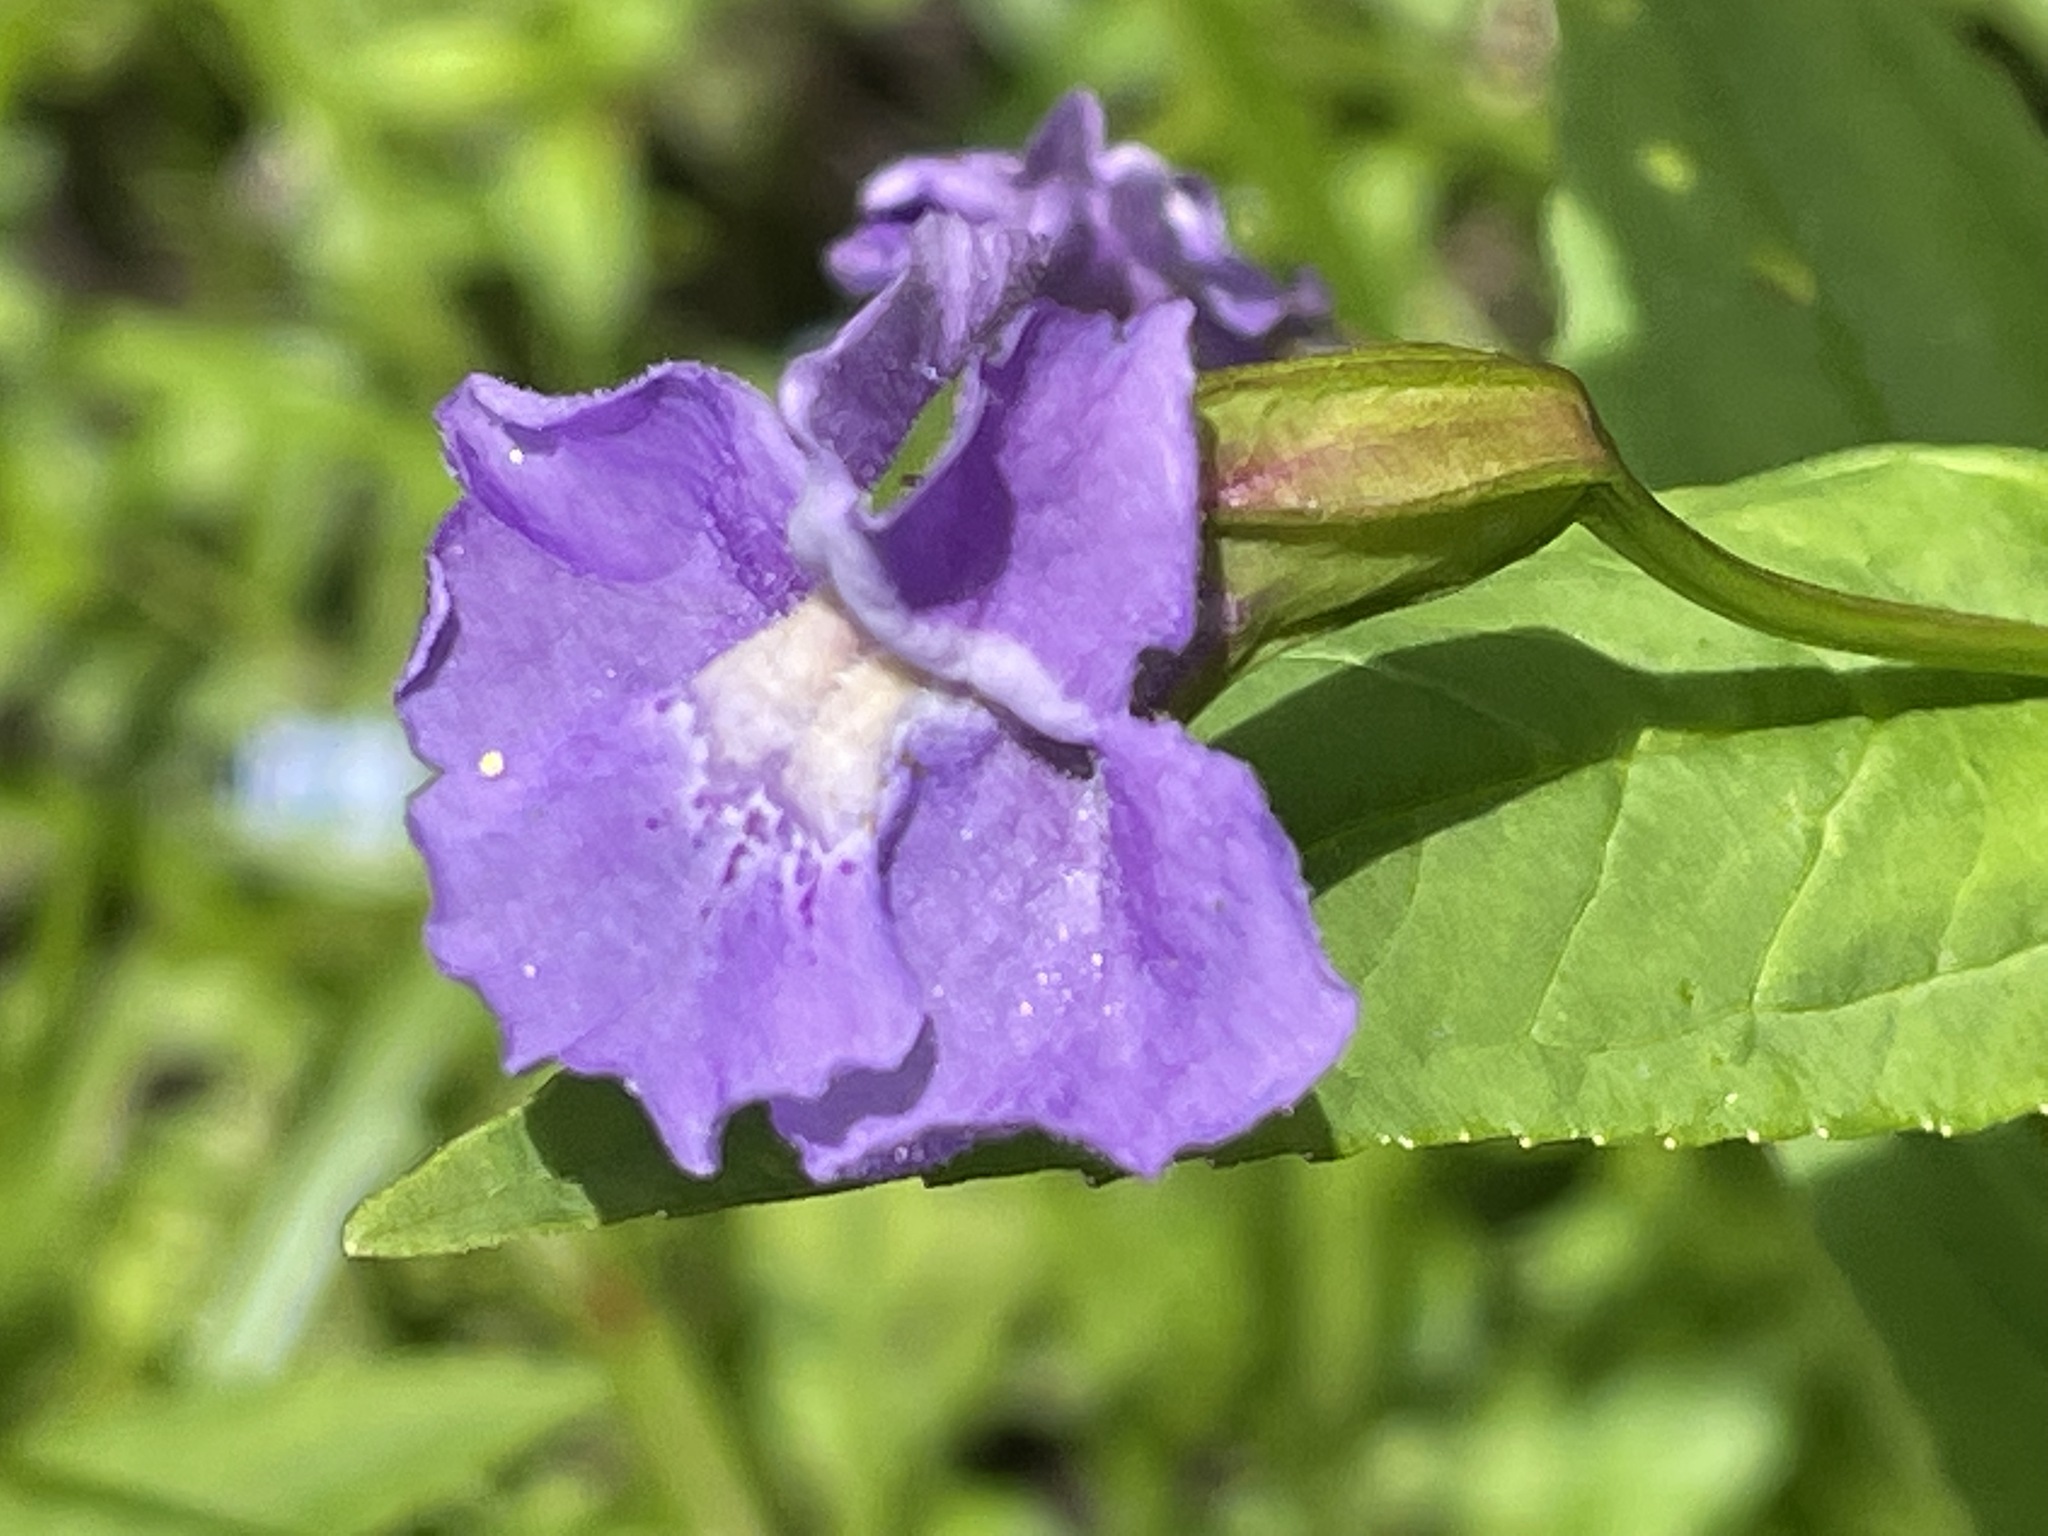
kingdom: Plantae
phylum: Tracheophyta
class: Magnoliopsida
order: Lamiales
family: Phrymaceae
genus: Mimulus
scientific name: Mimulus ringens
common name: Allegheny monkeyflower
